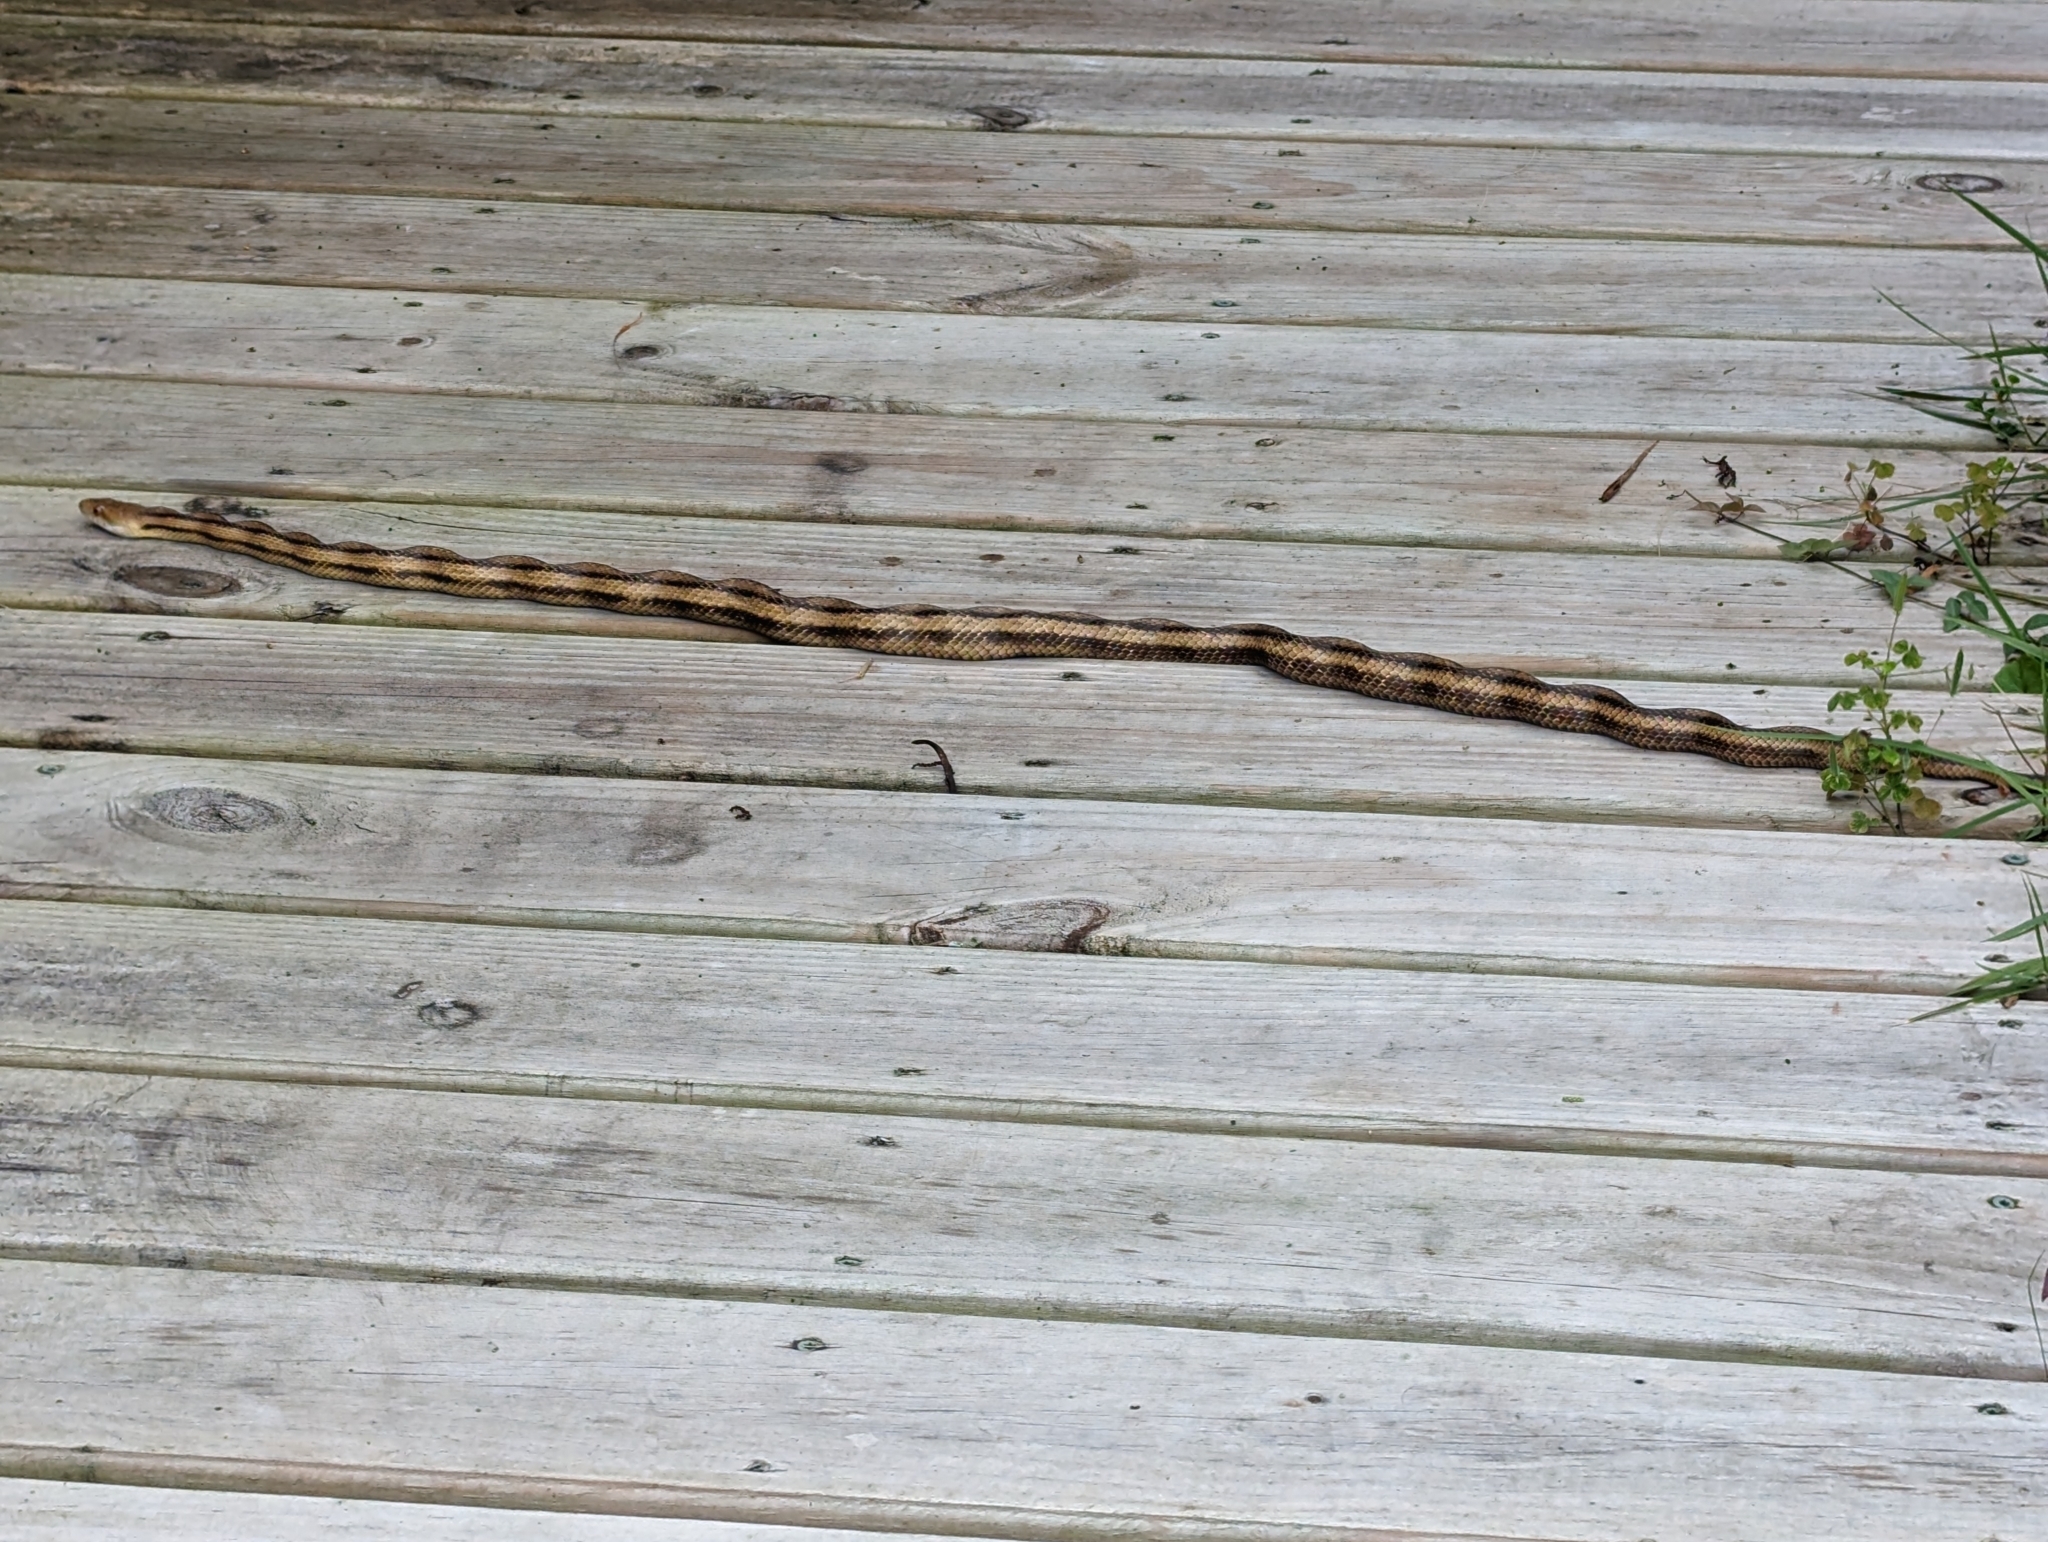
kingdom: Animalia
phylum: Chordata
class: Squamata
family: Colubridae
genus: Pantherophis
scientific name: Pantherophis alleghaniensis
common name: Eastern rat snake
